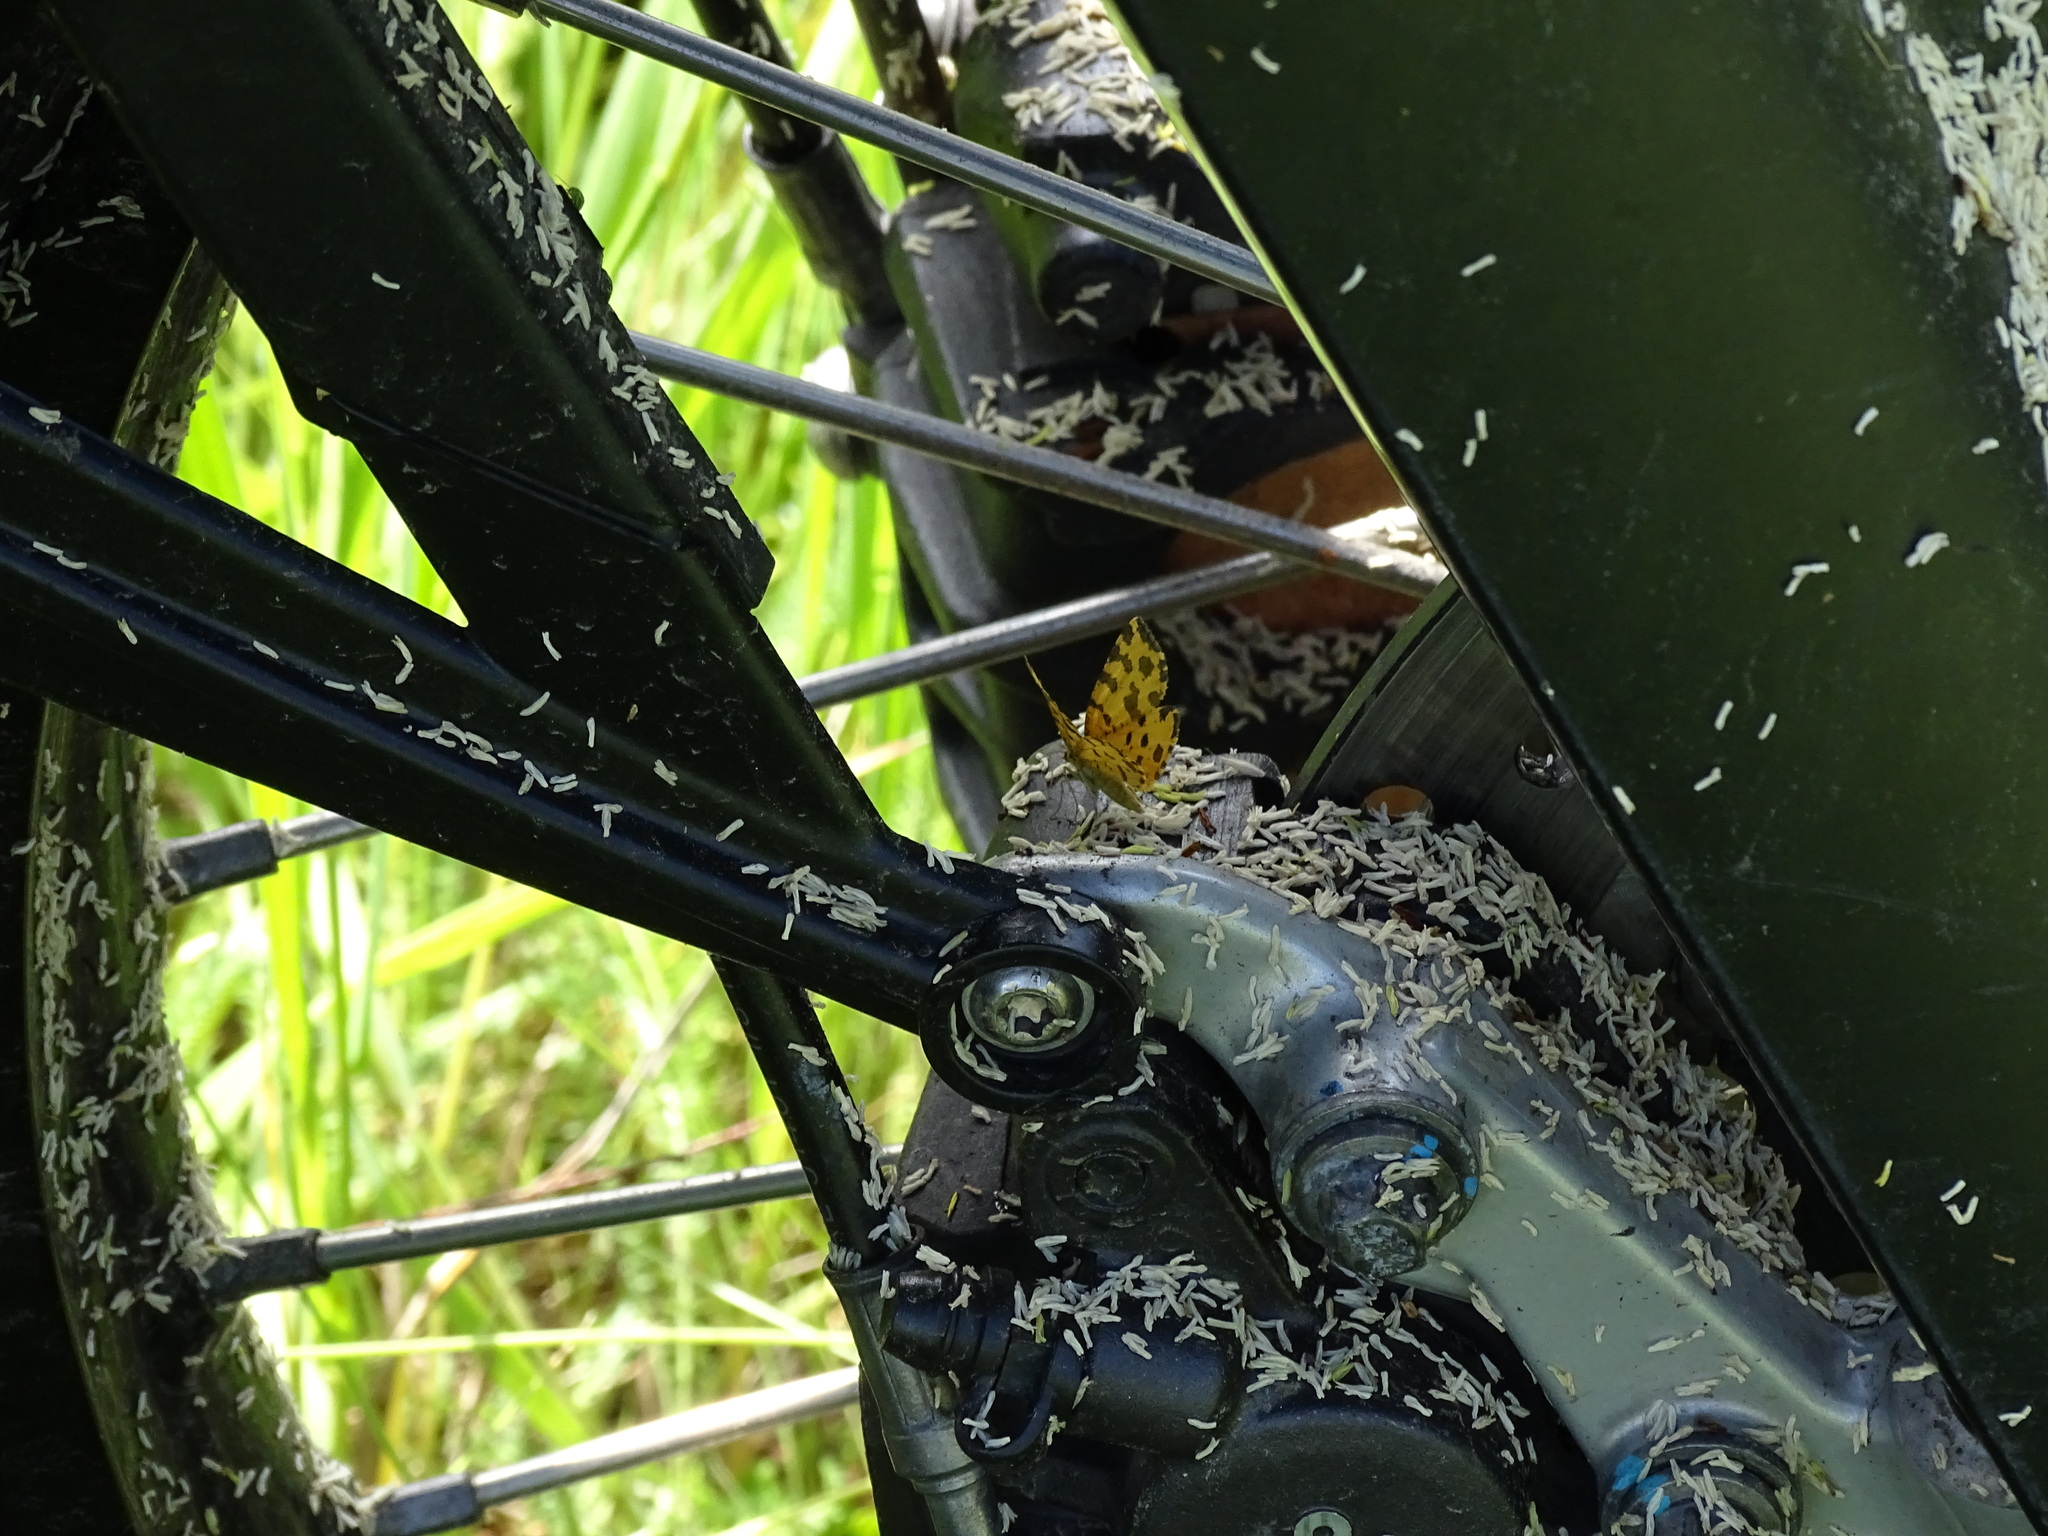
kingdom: Animalia
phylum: Arthropoda
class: Insecta
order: Lepidoptera
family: Geometridae
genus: Pseudopanthera
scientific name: Pseudopanthera macularia
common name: Speckled yellow
